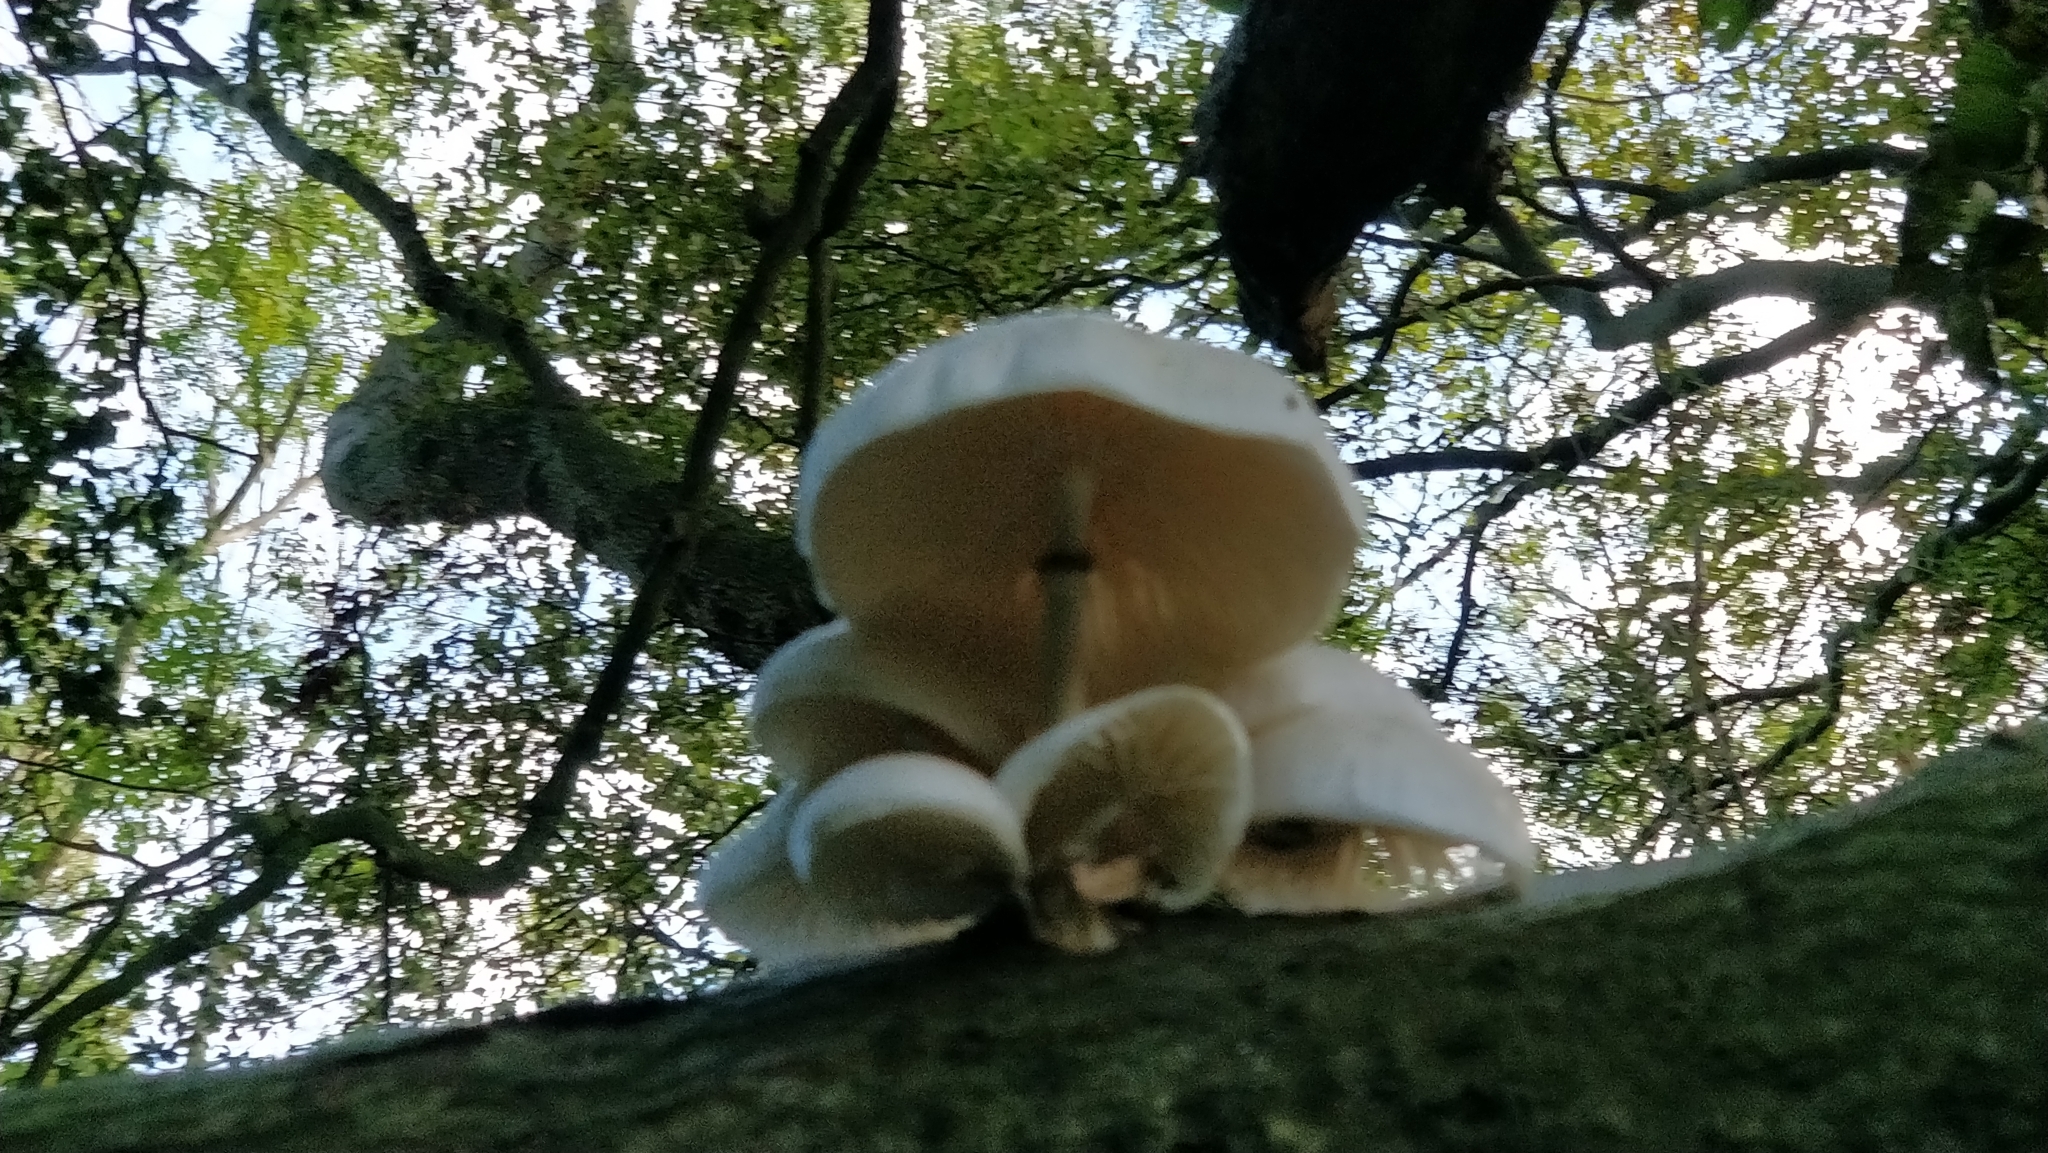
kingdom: Fungi
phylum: Basidiomycota
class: Agaricomycetes
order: Agaricales
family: Physalacriaceae
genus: Mucidula
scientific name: Mucidula mucida
